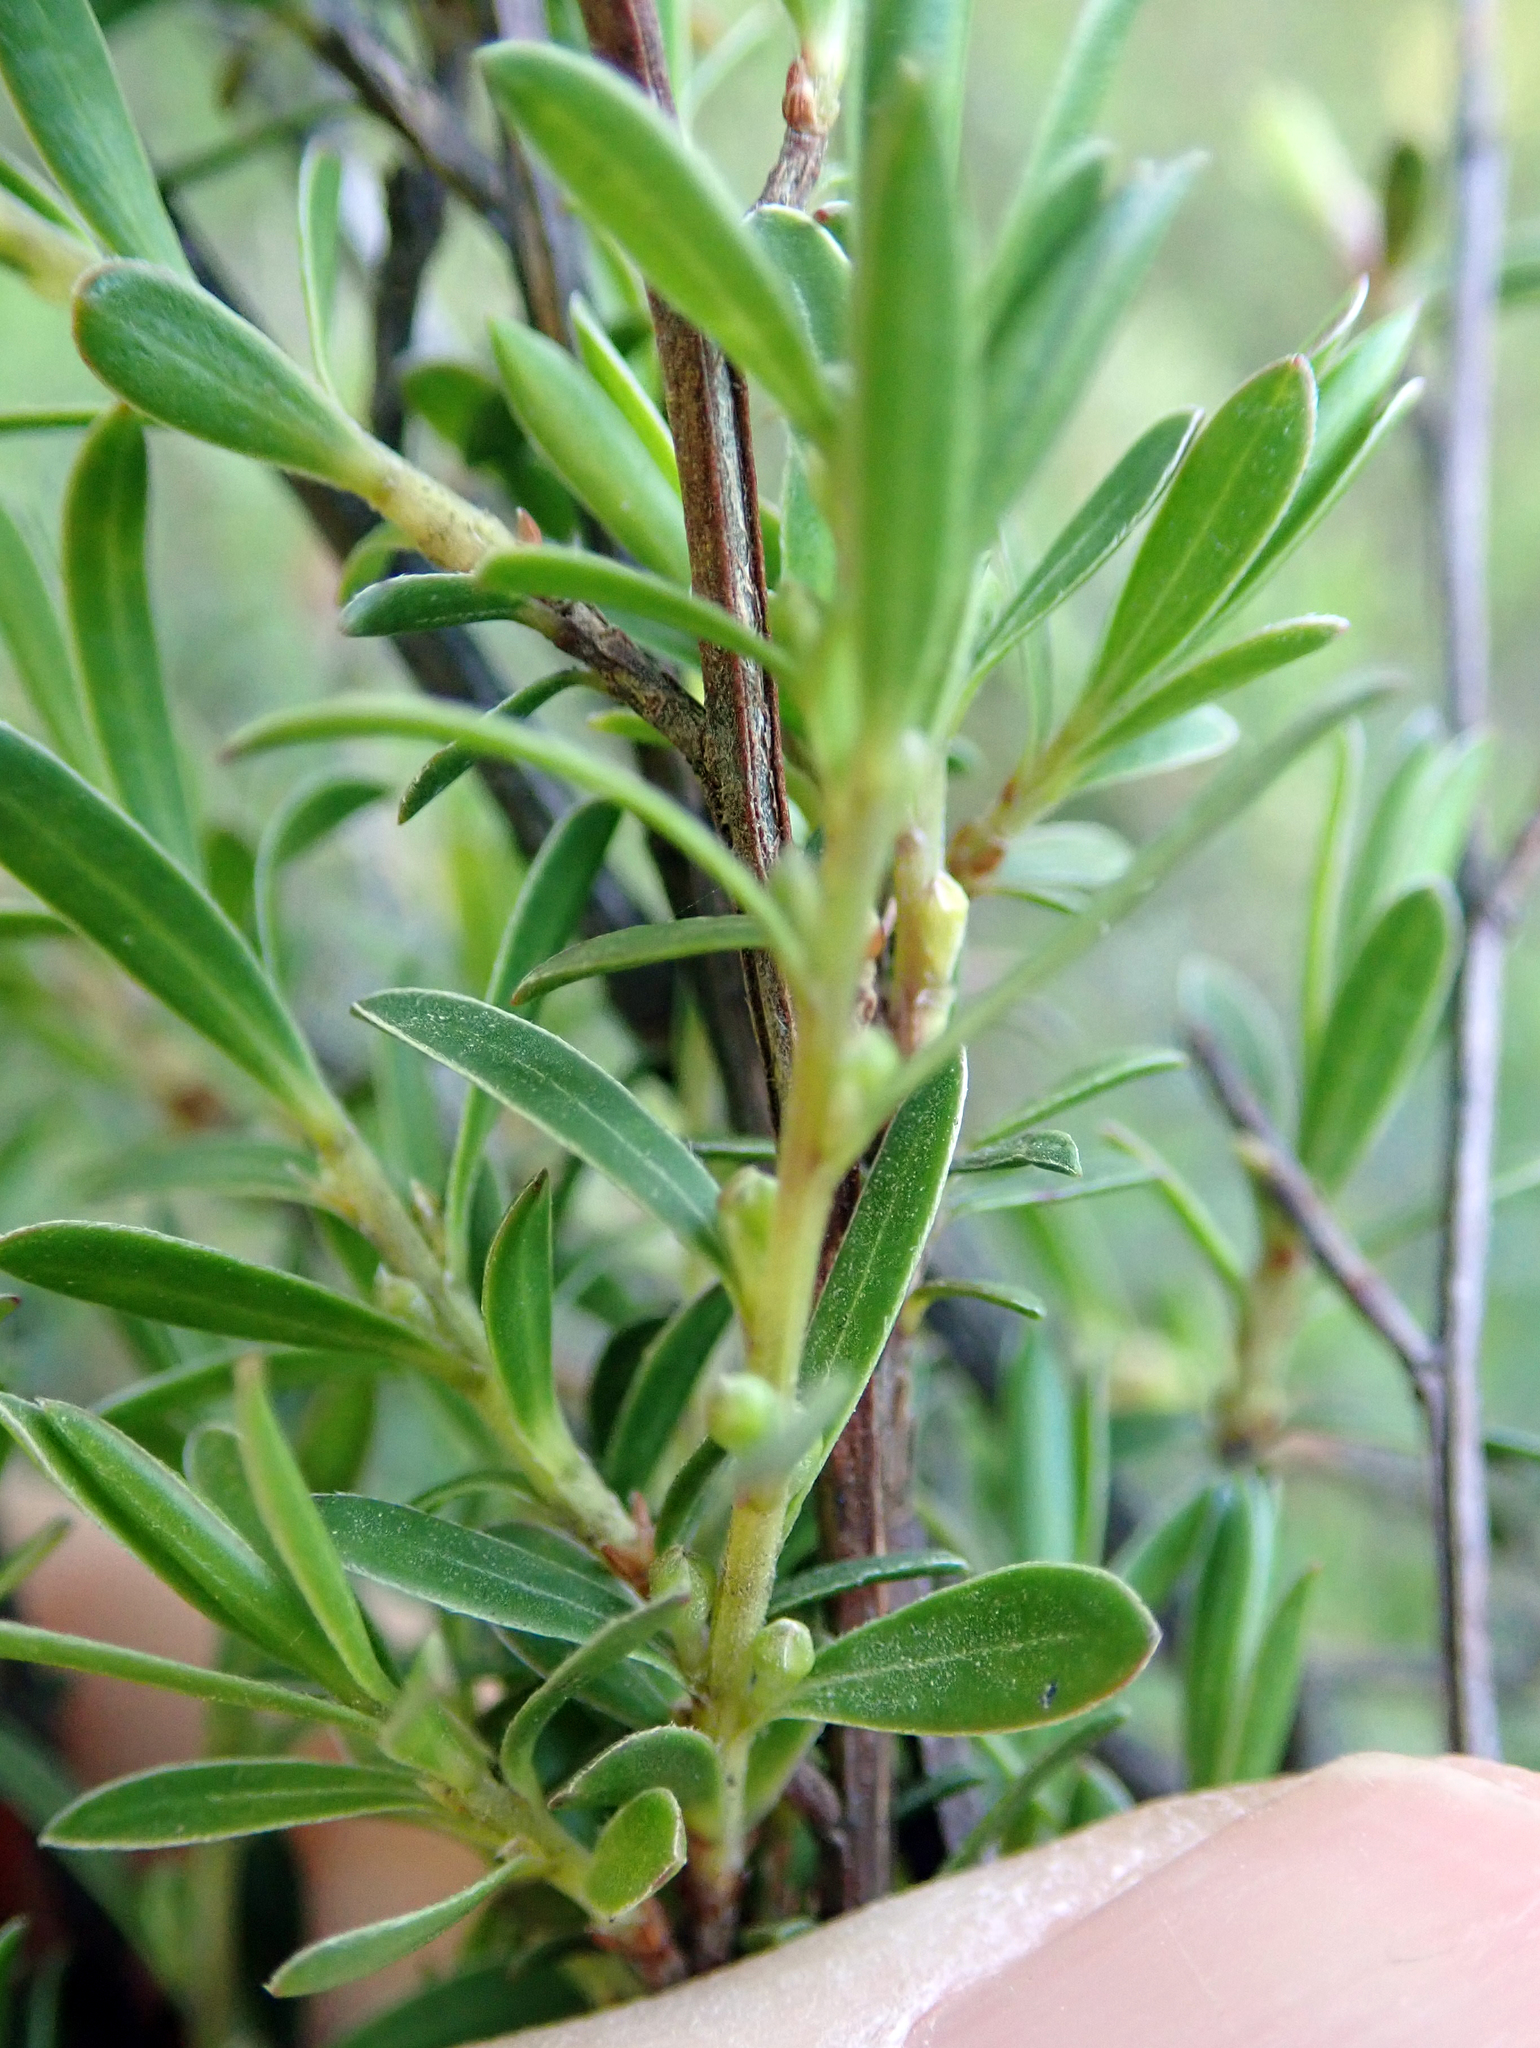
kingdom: Plantae
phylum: Tracheophyta
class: Magnoliopsida
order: Myrtales
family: Myrtaceae
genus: Kunzea
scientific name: Kunzea amathicola
